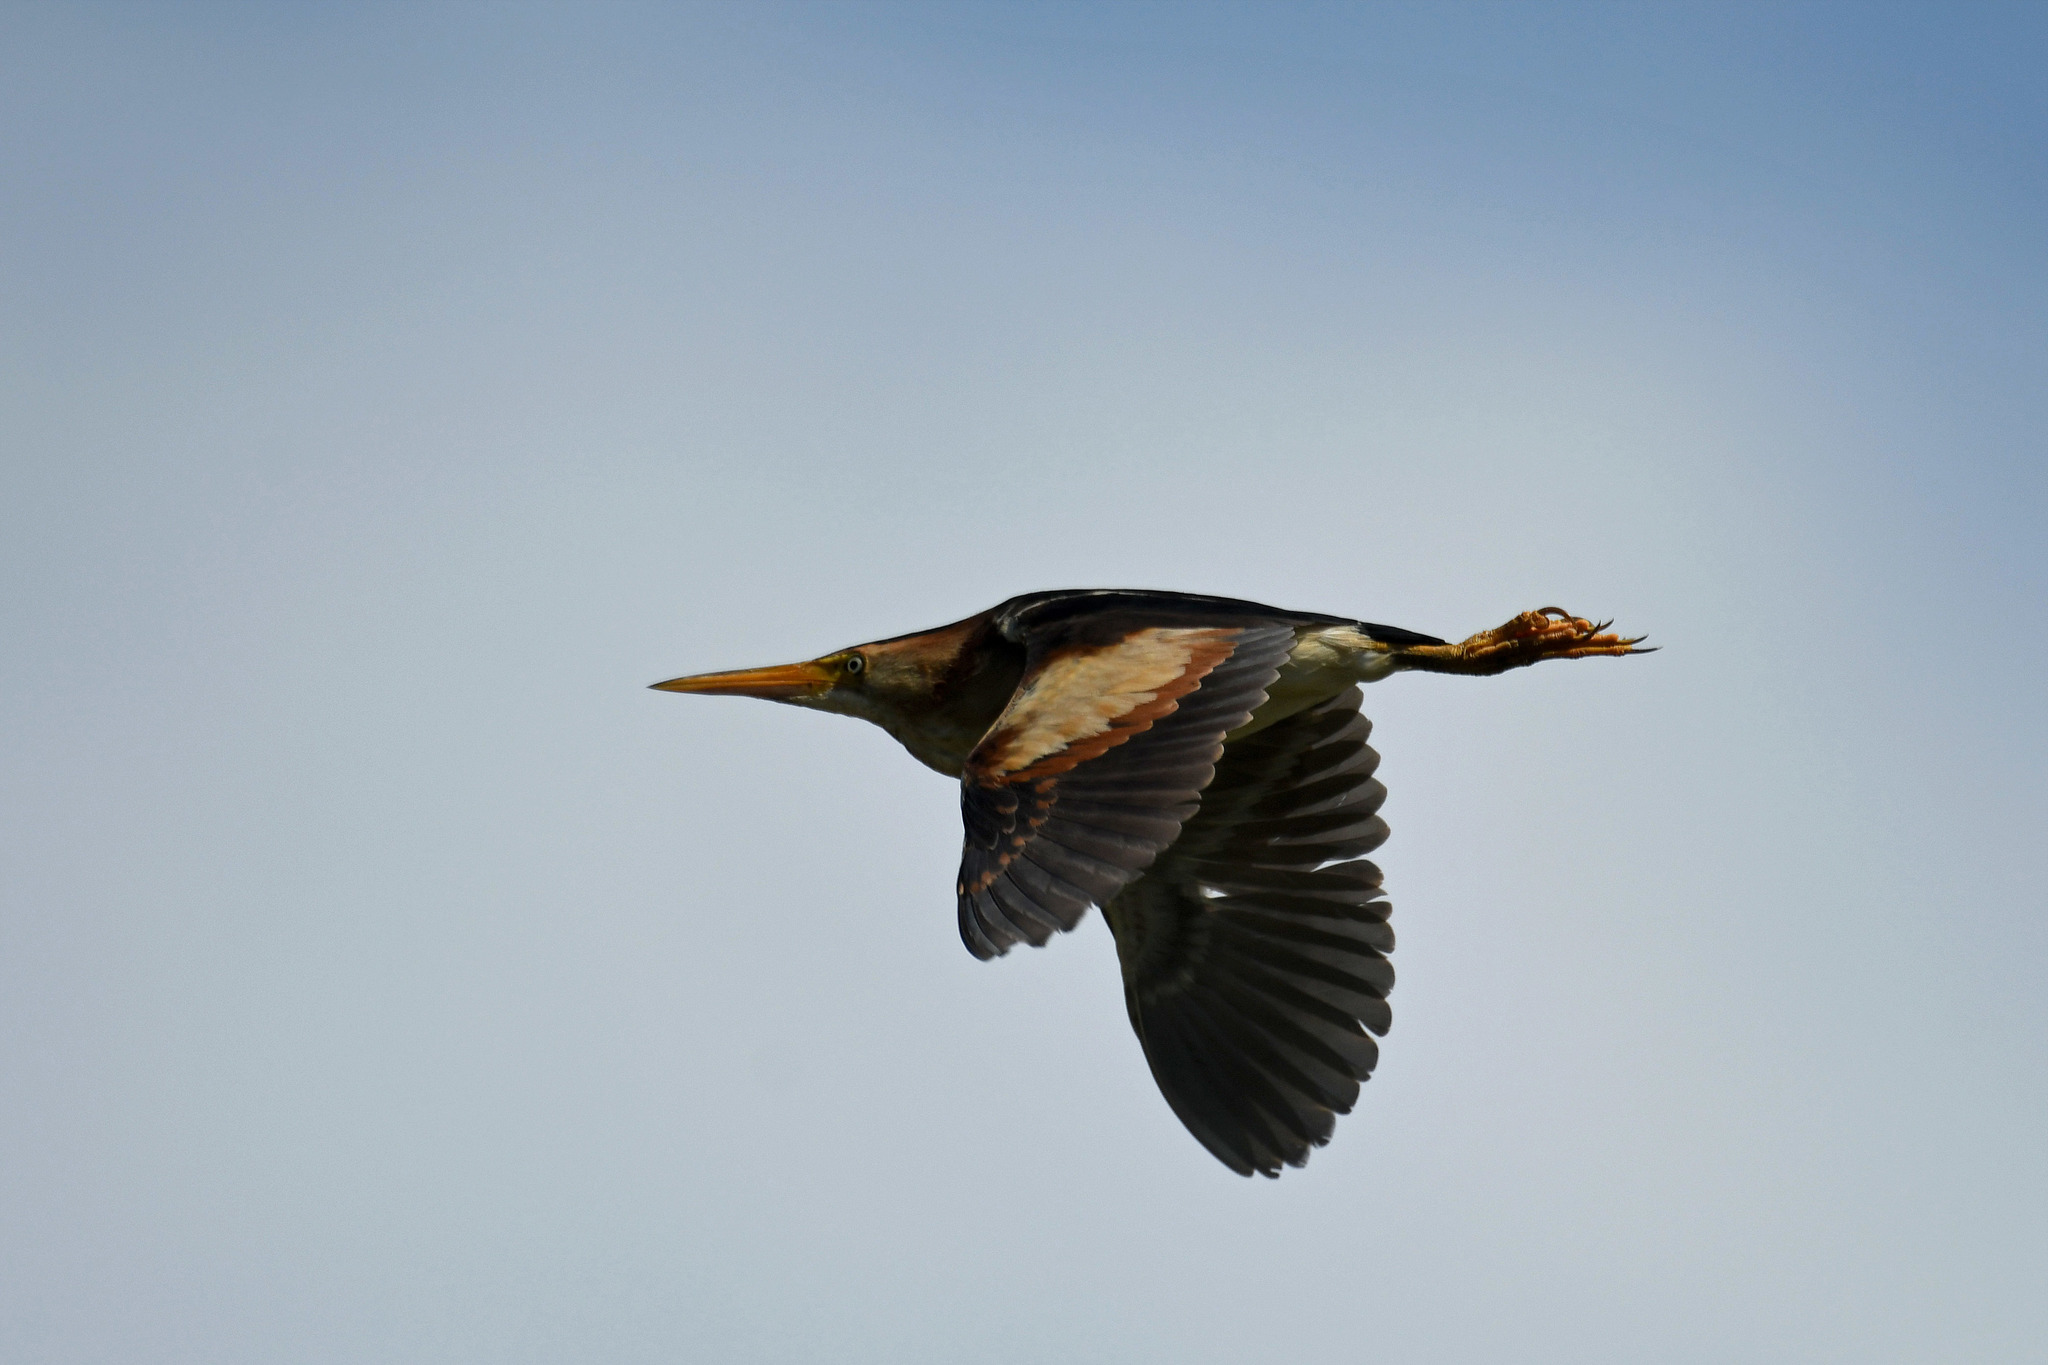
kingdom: Animalia
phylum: Chordata
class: Aves
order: Pelecaniformes
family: Ardeidae
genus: Ixobrychus
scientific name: Ixobrychus exilis
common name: Least bittern
